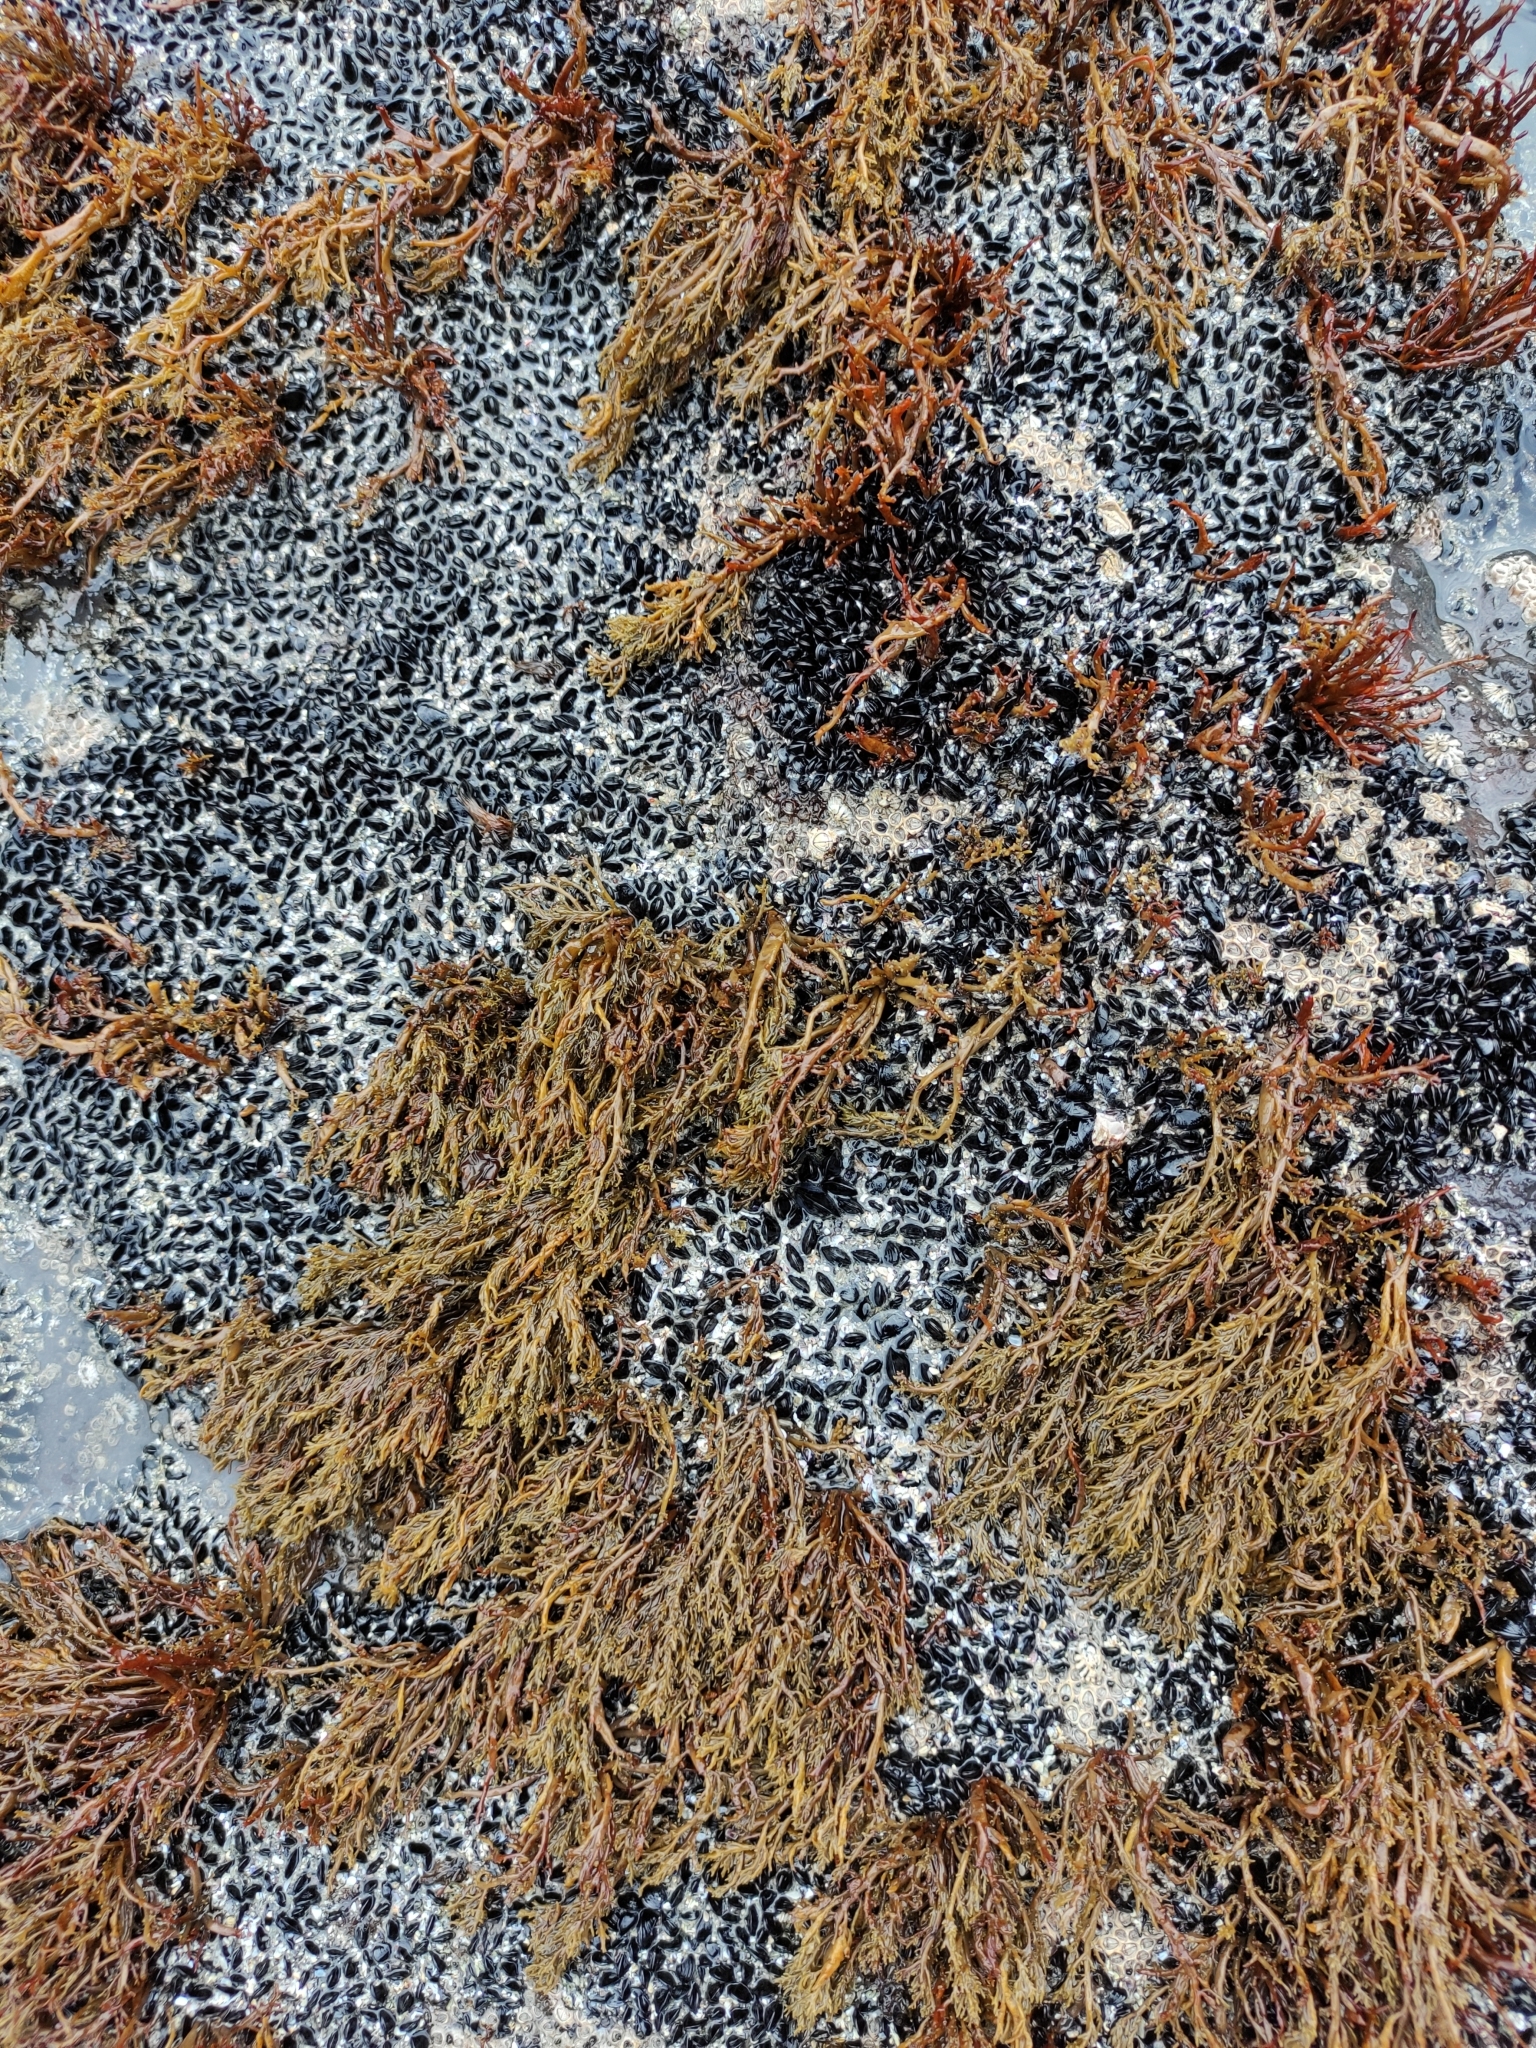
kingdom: Chromista
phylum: Ochrophyta
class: Phaeophyceae
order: Scytothamnales
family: Scytothamnaceae
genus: Scytothamnus
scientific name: Scytothamnus australis
